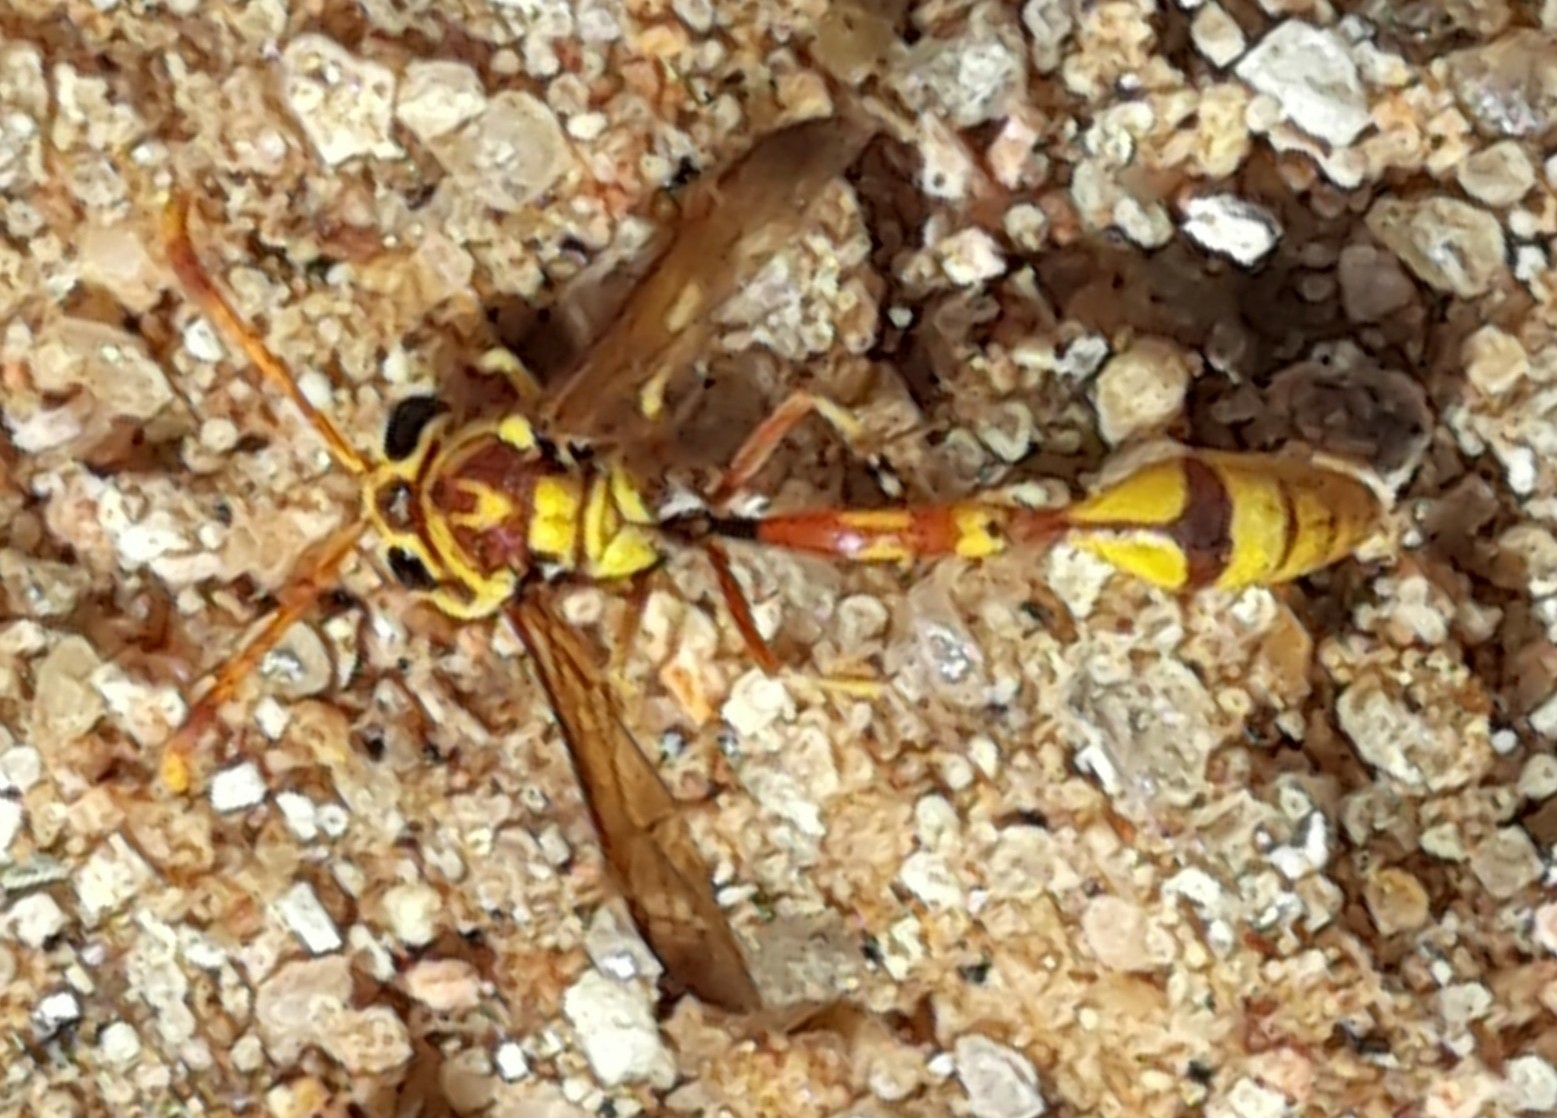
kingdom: Animalia
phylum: Arthropoda
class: Insecta
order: Hymenoptera
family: Eumenidae
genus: Ischnogasteroides
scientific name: Ischnogasteroides flavus
